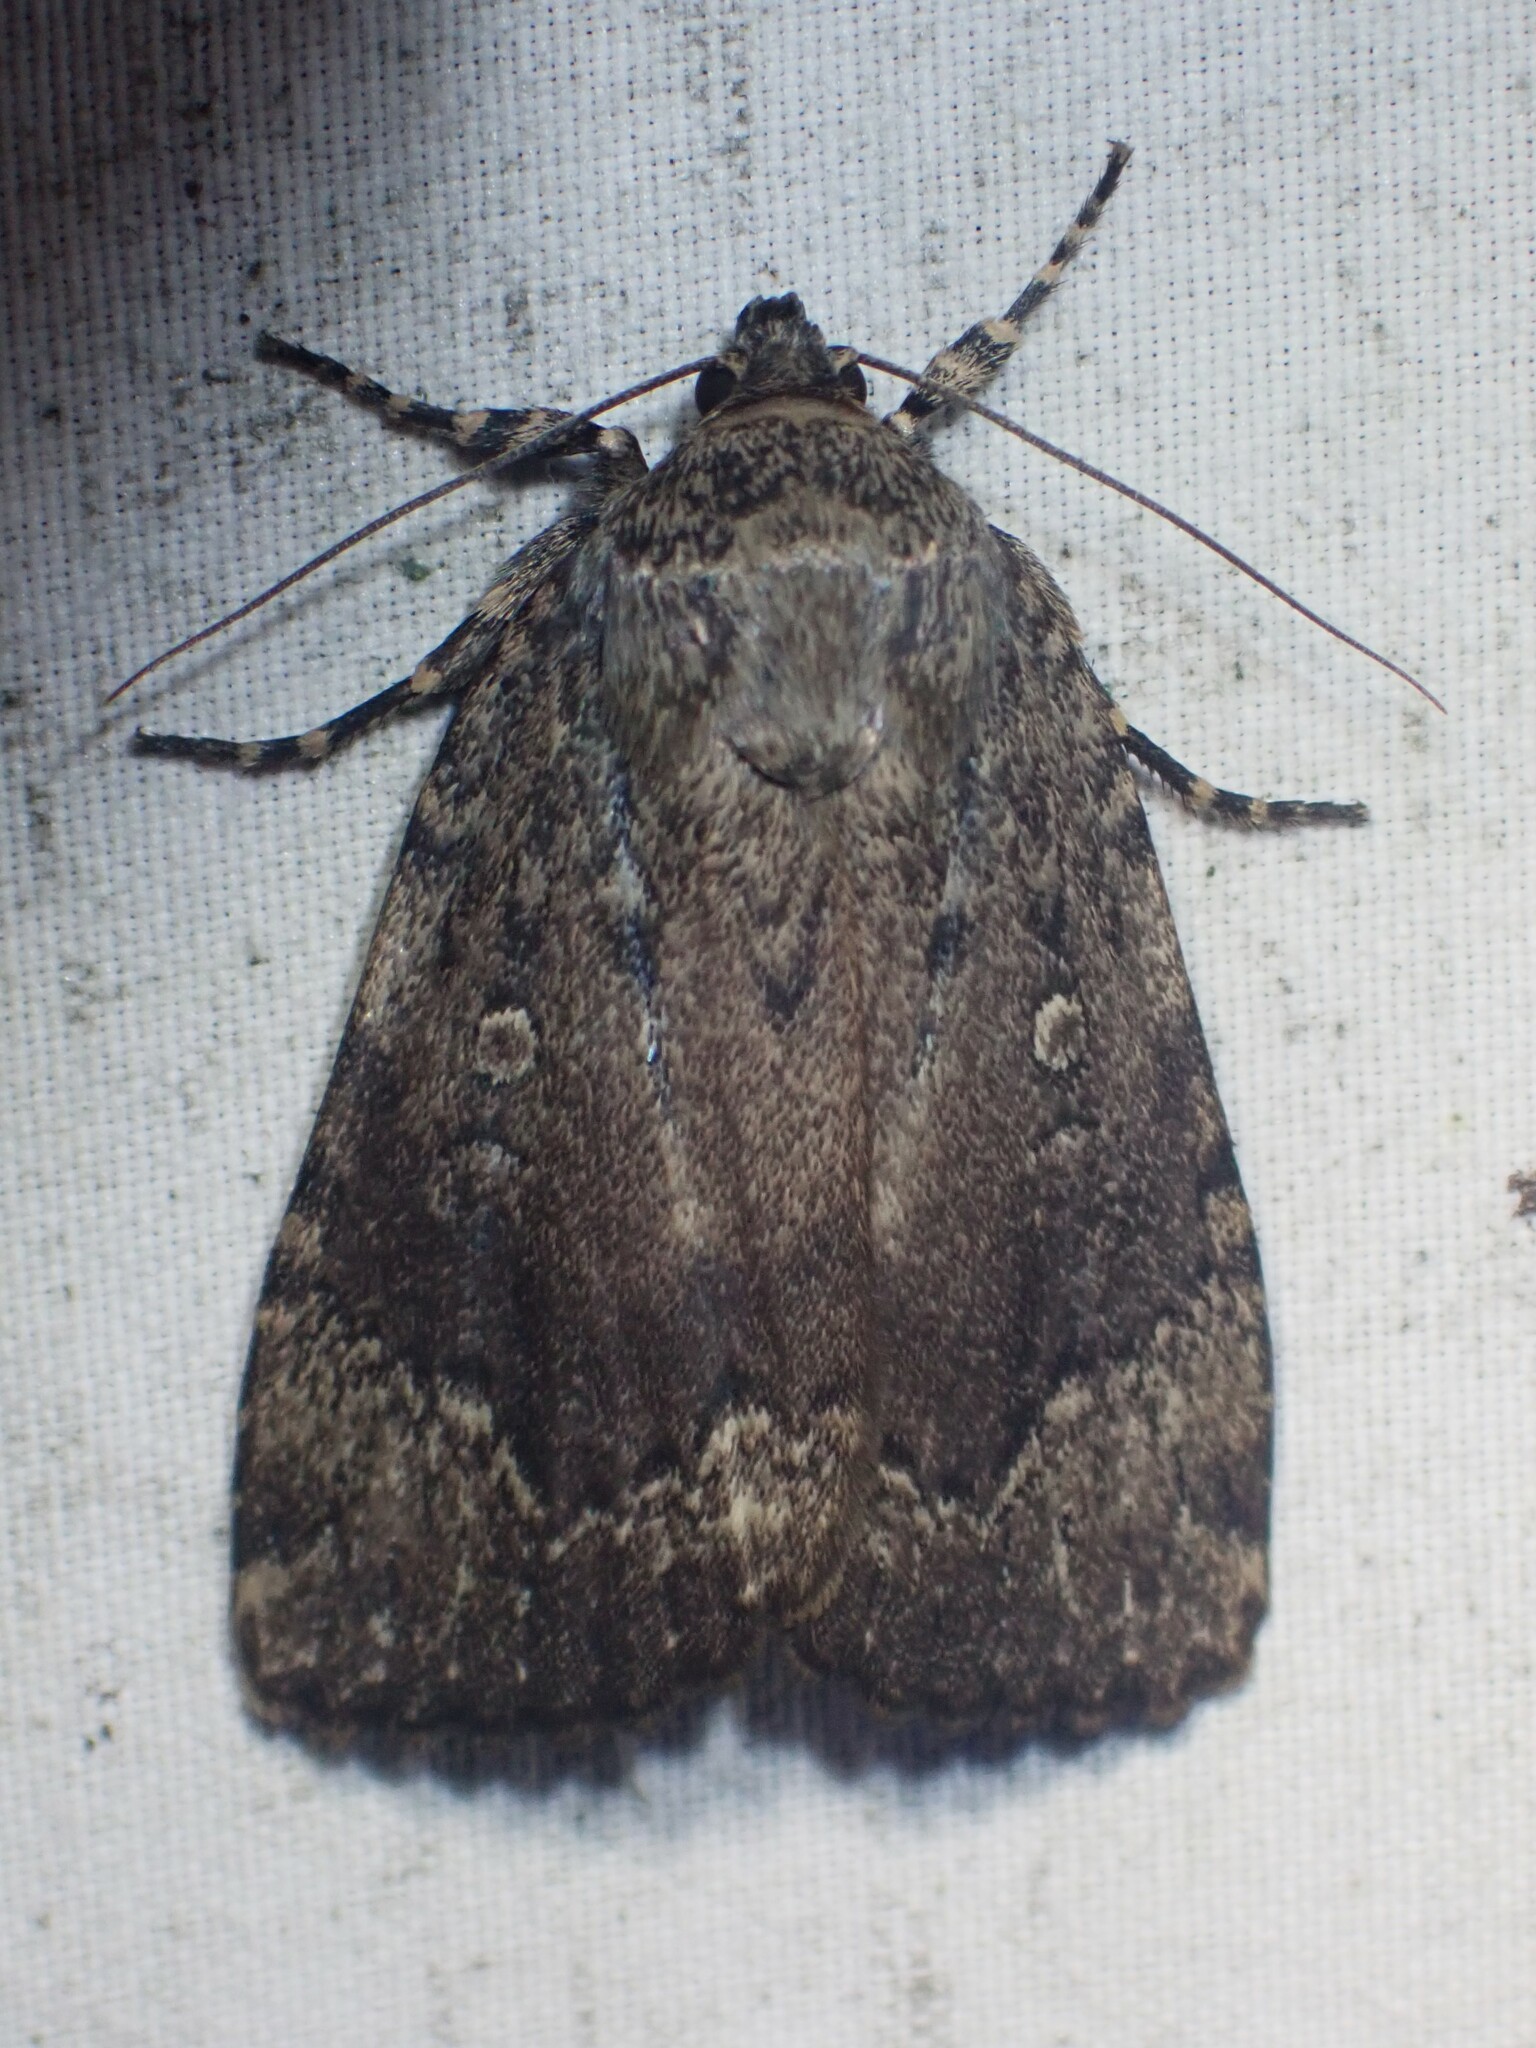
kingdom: Animalia
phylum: Arthropoda
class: Insecta
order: Lepidoptera
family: Noctuidae
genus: Amphipyra
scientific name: Amphipyra pyramidoides
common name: American copper underwing
